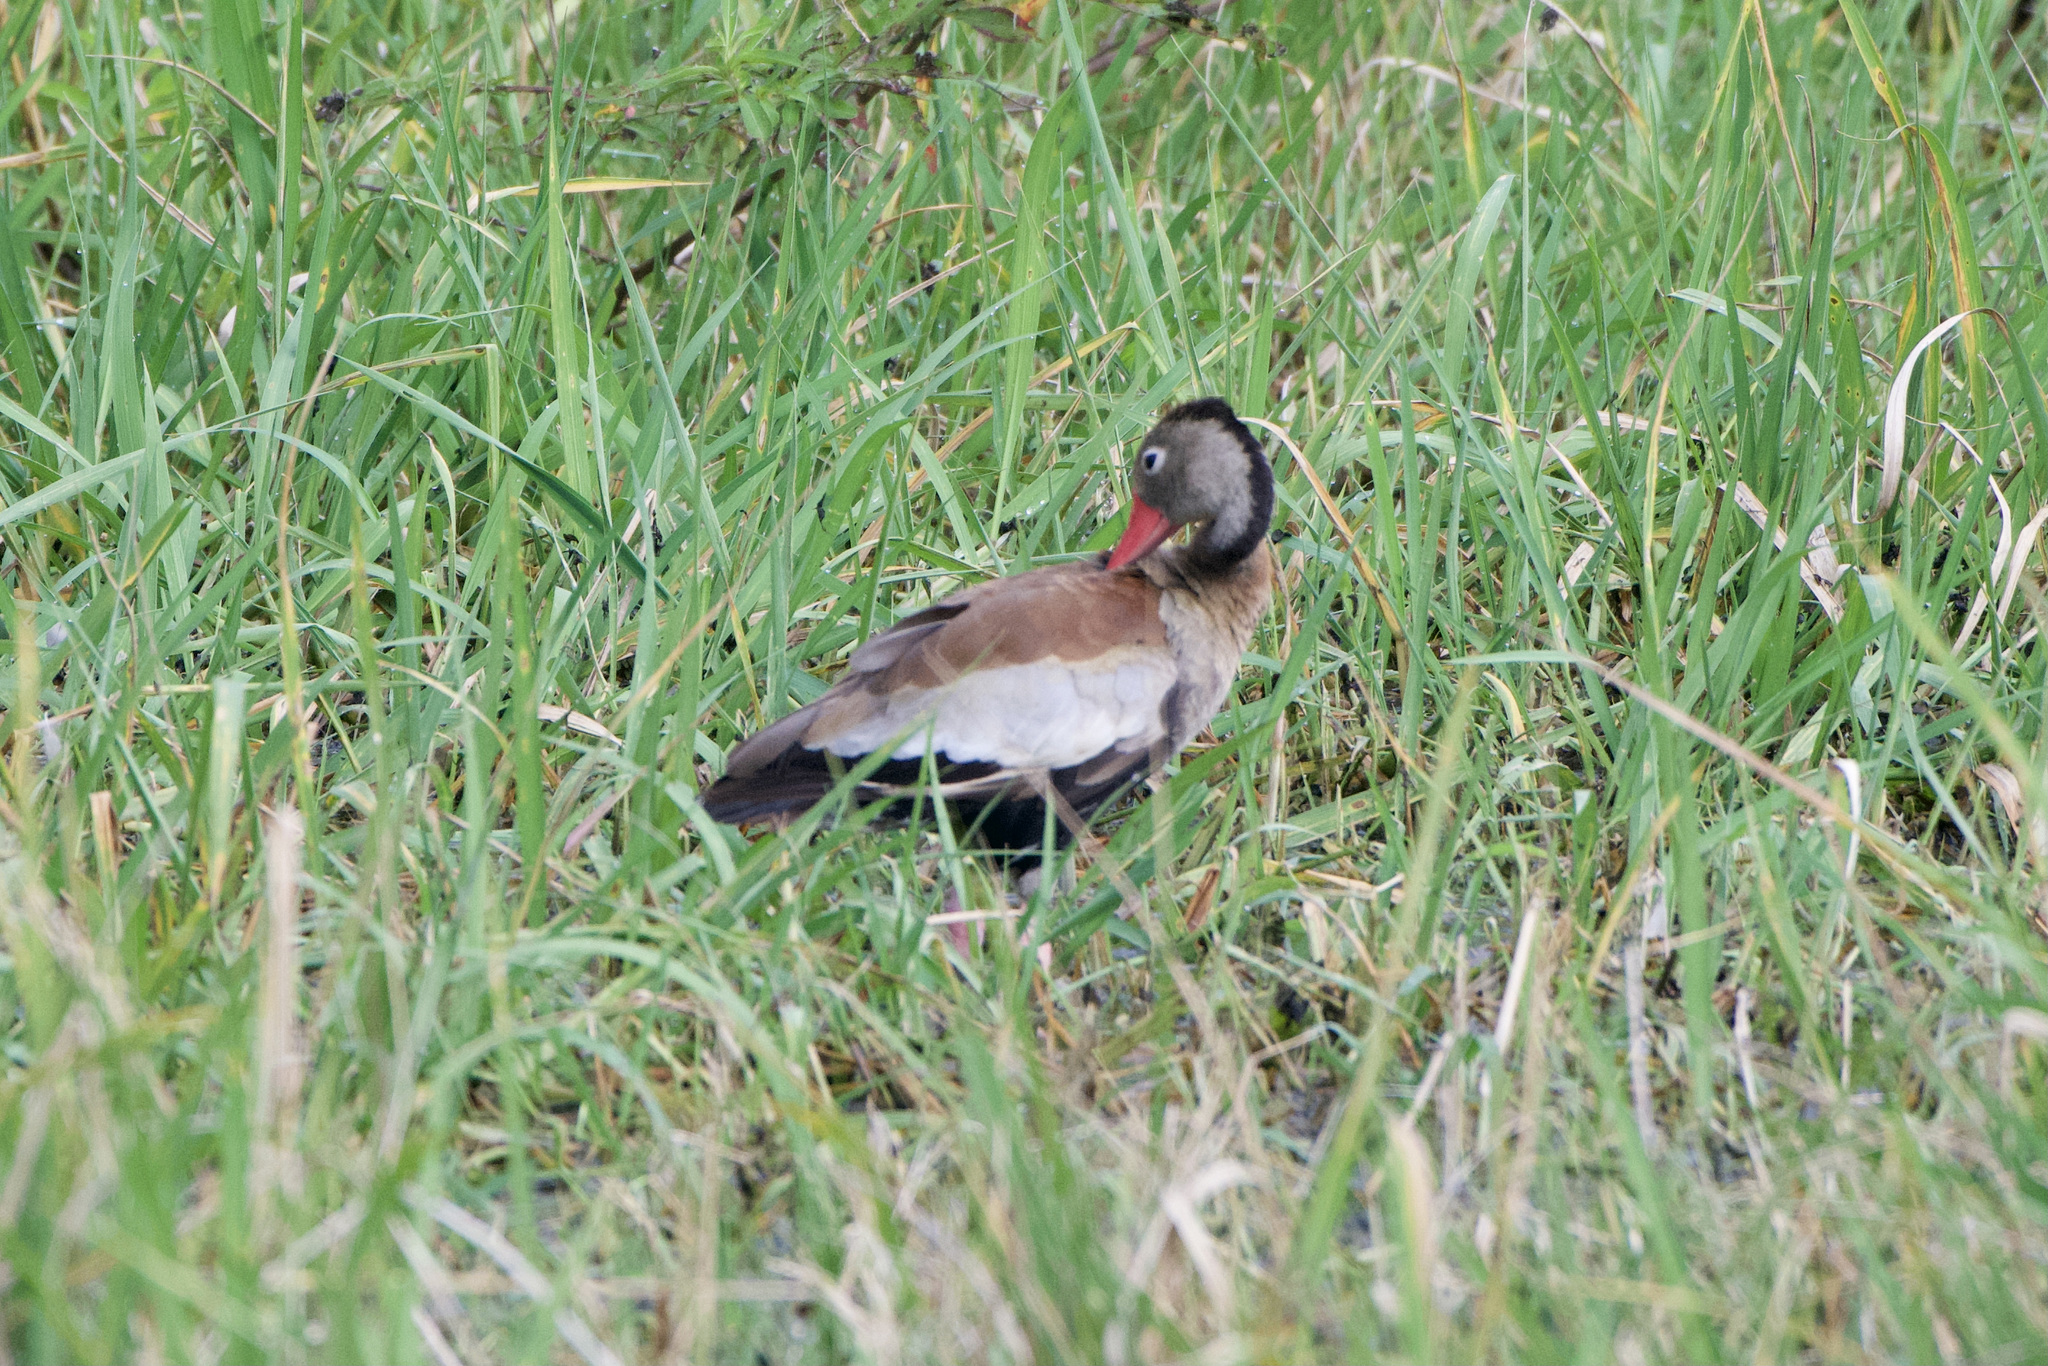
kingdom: Animalia
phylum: Chordata
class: Aves
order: Anseriformes
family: Anatidae
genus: Dendrocygna
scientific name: Dendrocygna autumnalis
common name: Black-bellied whistling duck
